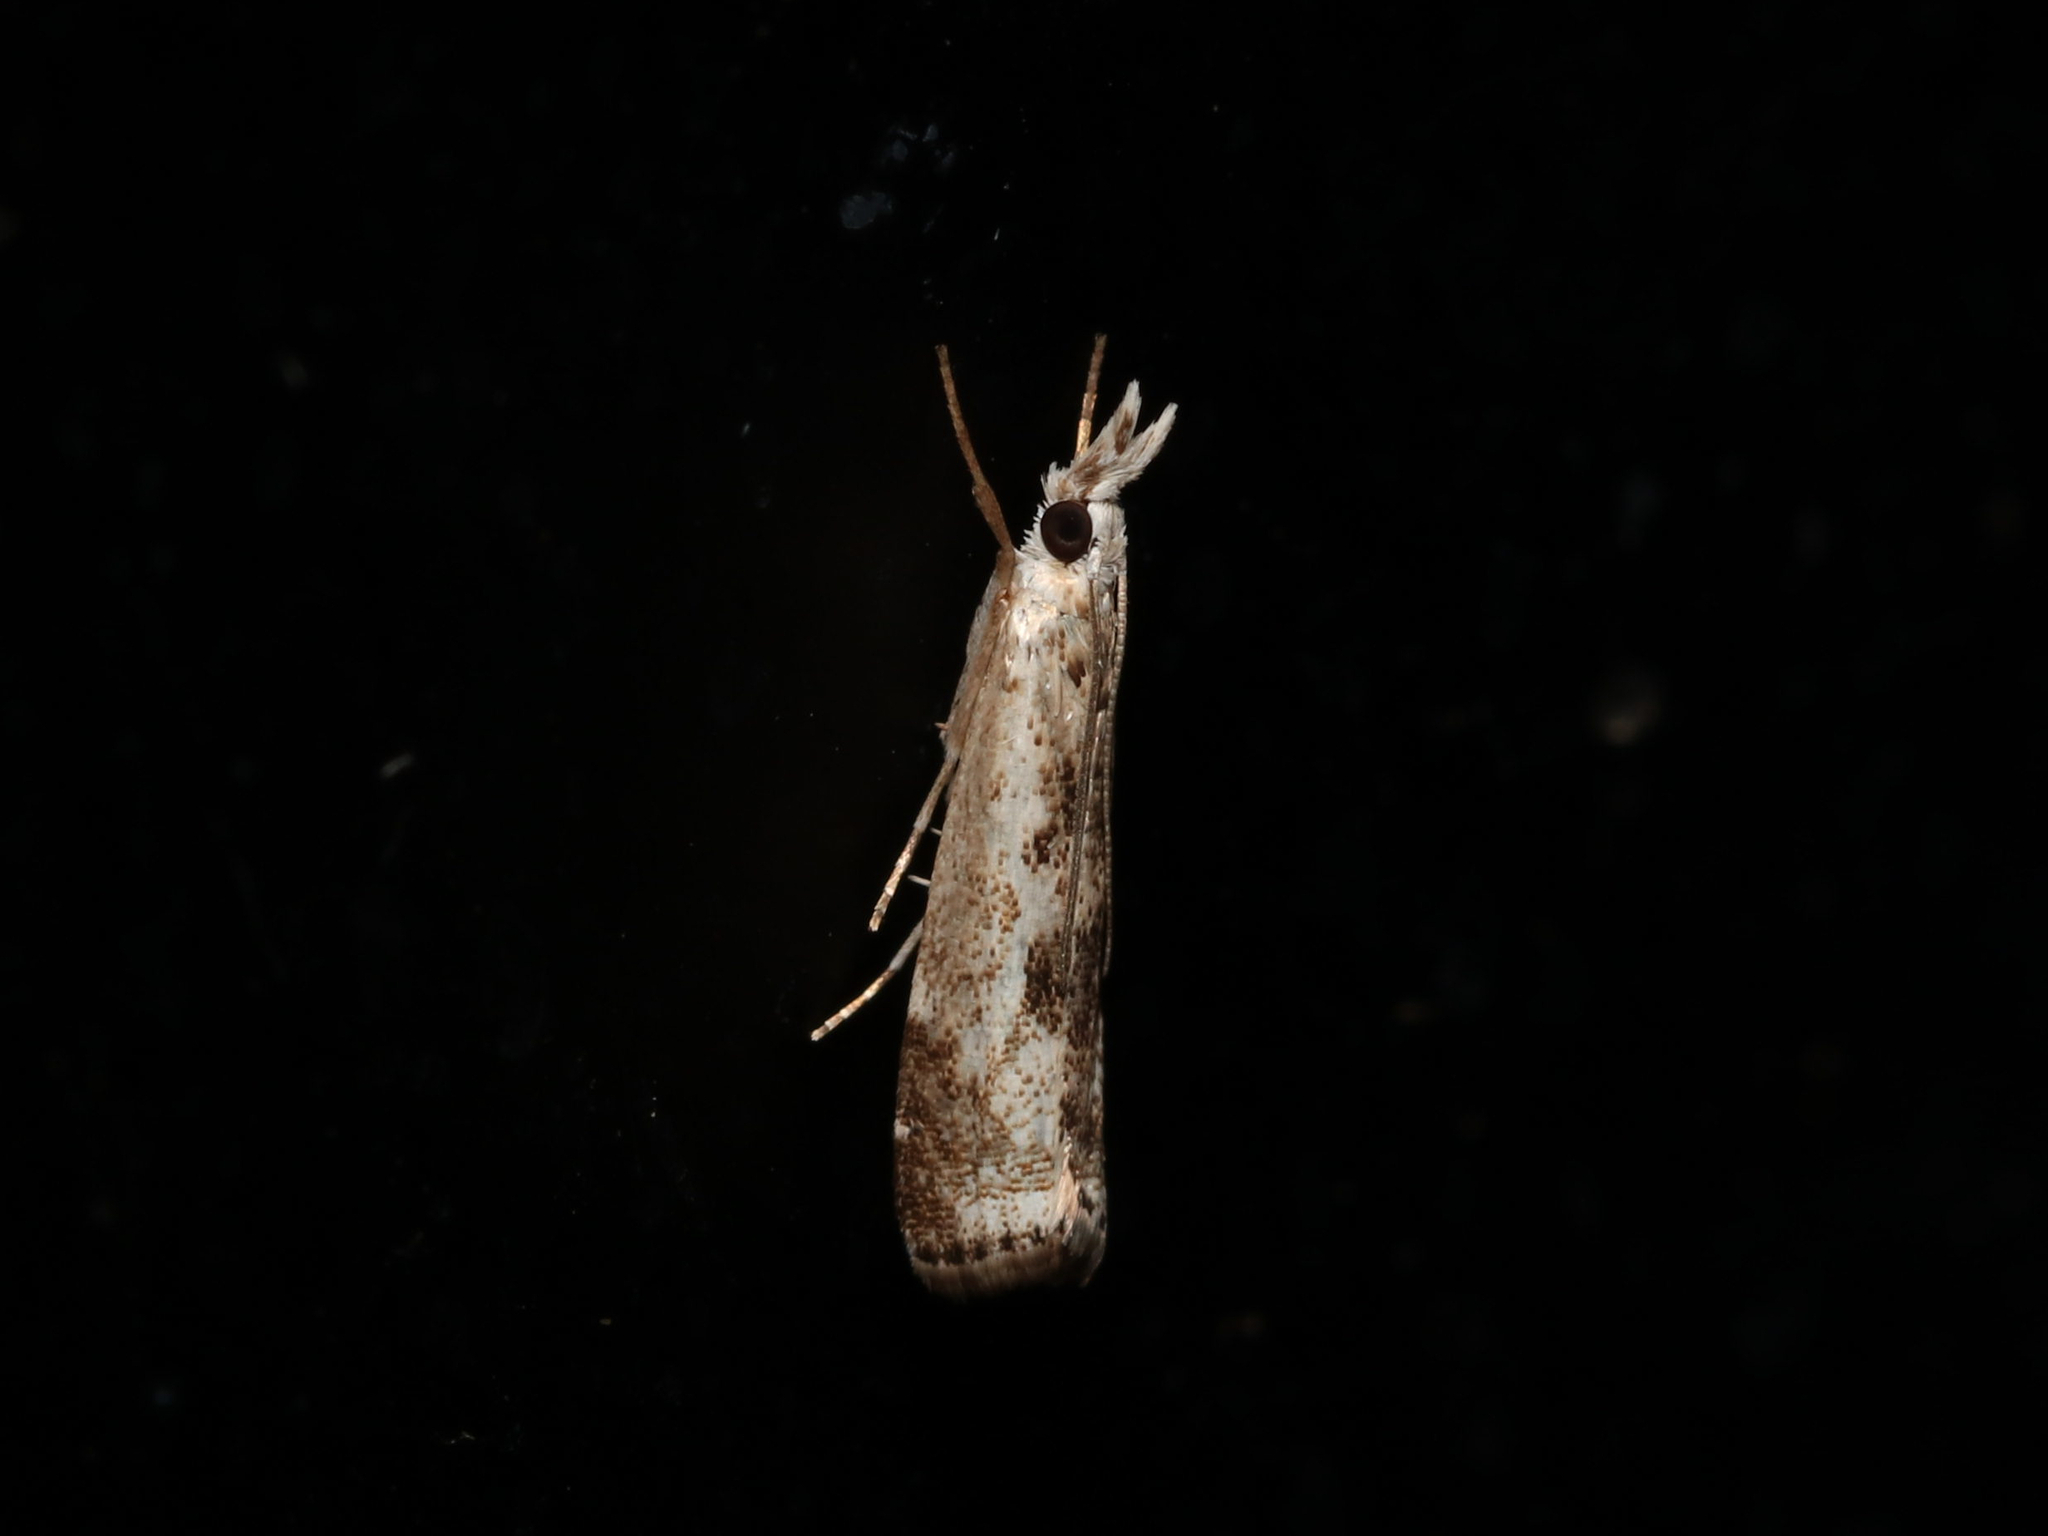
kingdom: Animalia
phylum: Arthropoda
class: Insecta
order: Lepidoptera
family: Crambidae
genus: Microcrambus
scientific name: Microcrambus immunellus
